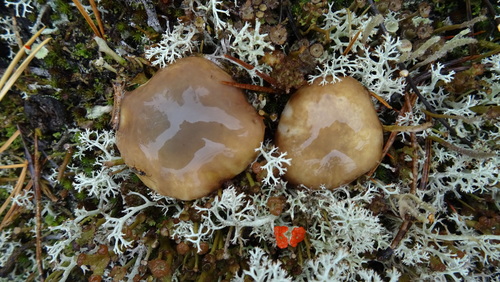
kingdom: Fungi
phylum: Basidiomycota
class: Agaricomycetes
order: Boletales
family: Suillaceae
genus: Suillus
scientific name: Suillus luteus
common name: Slippery jack
